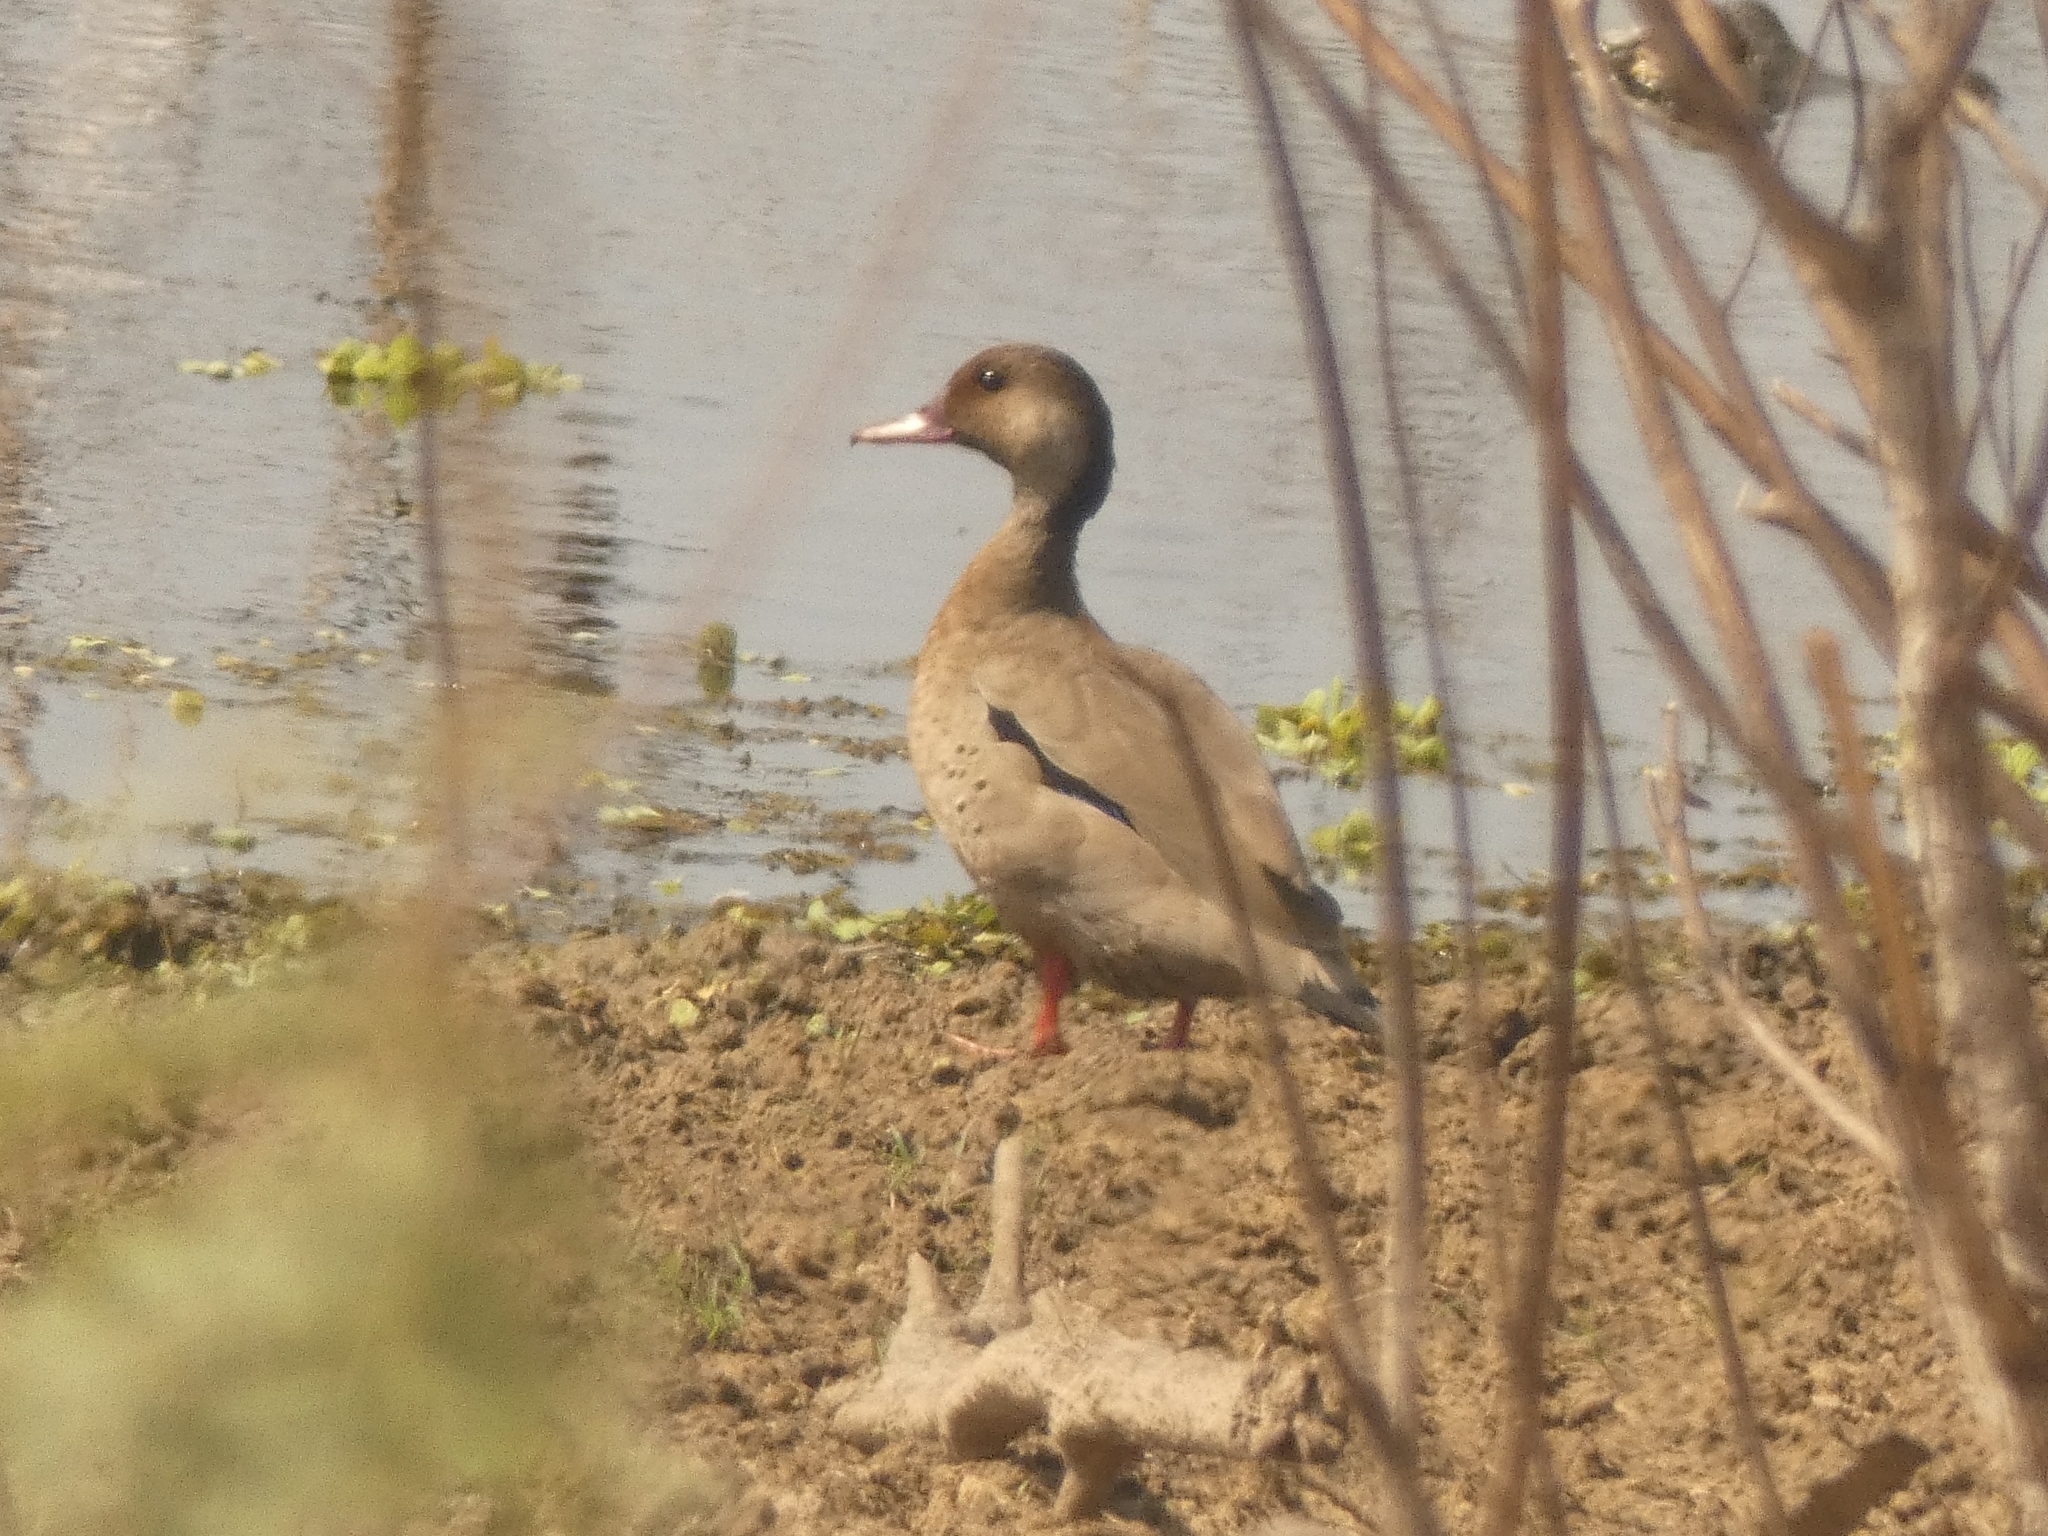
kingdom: Animalia
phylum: Chordata
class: Aves
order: Anseriformes
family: Anatidae
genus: Amazonetta
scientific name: Amazonetta brasiliensis
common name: Brazilian teal
